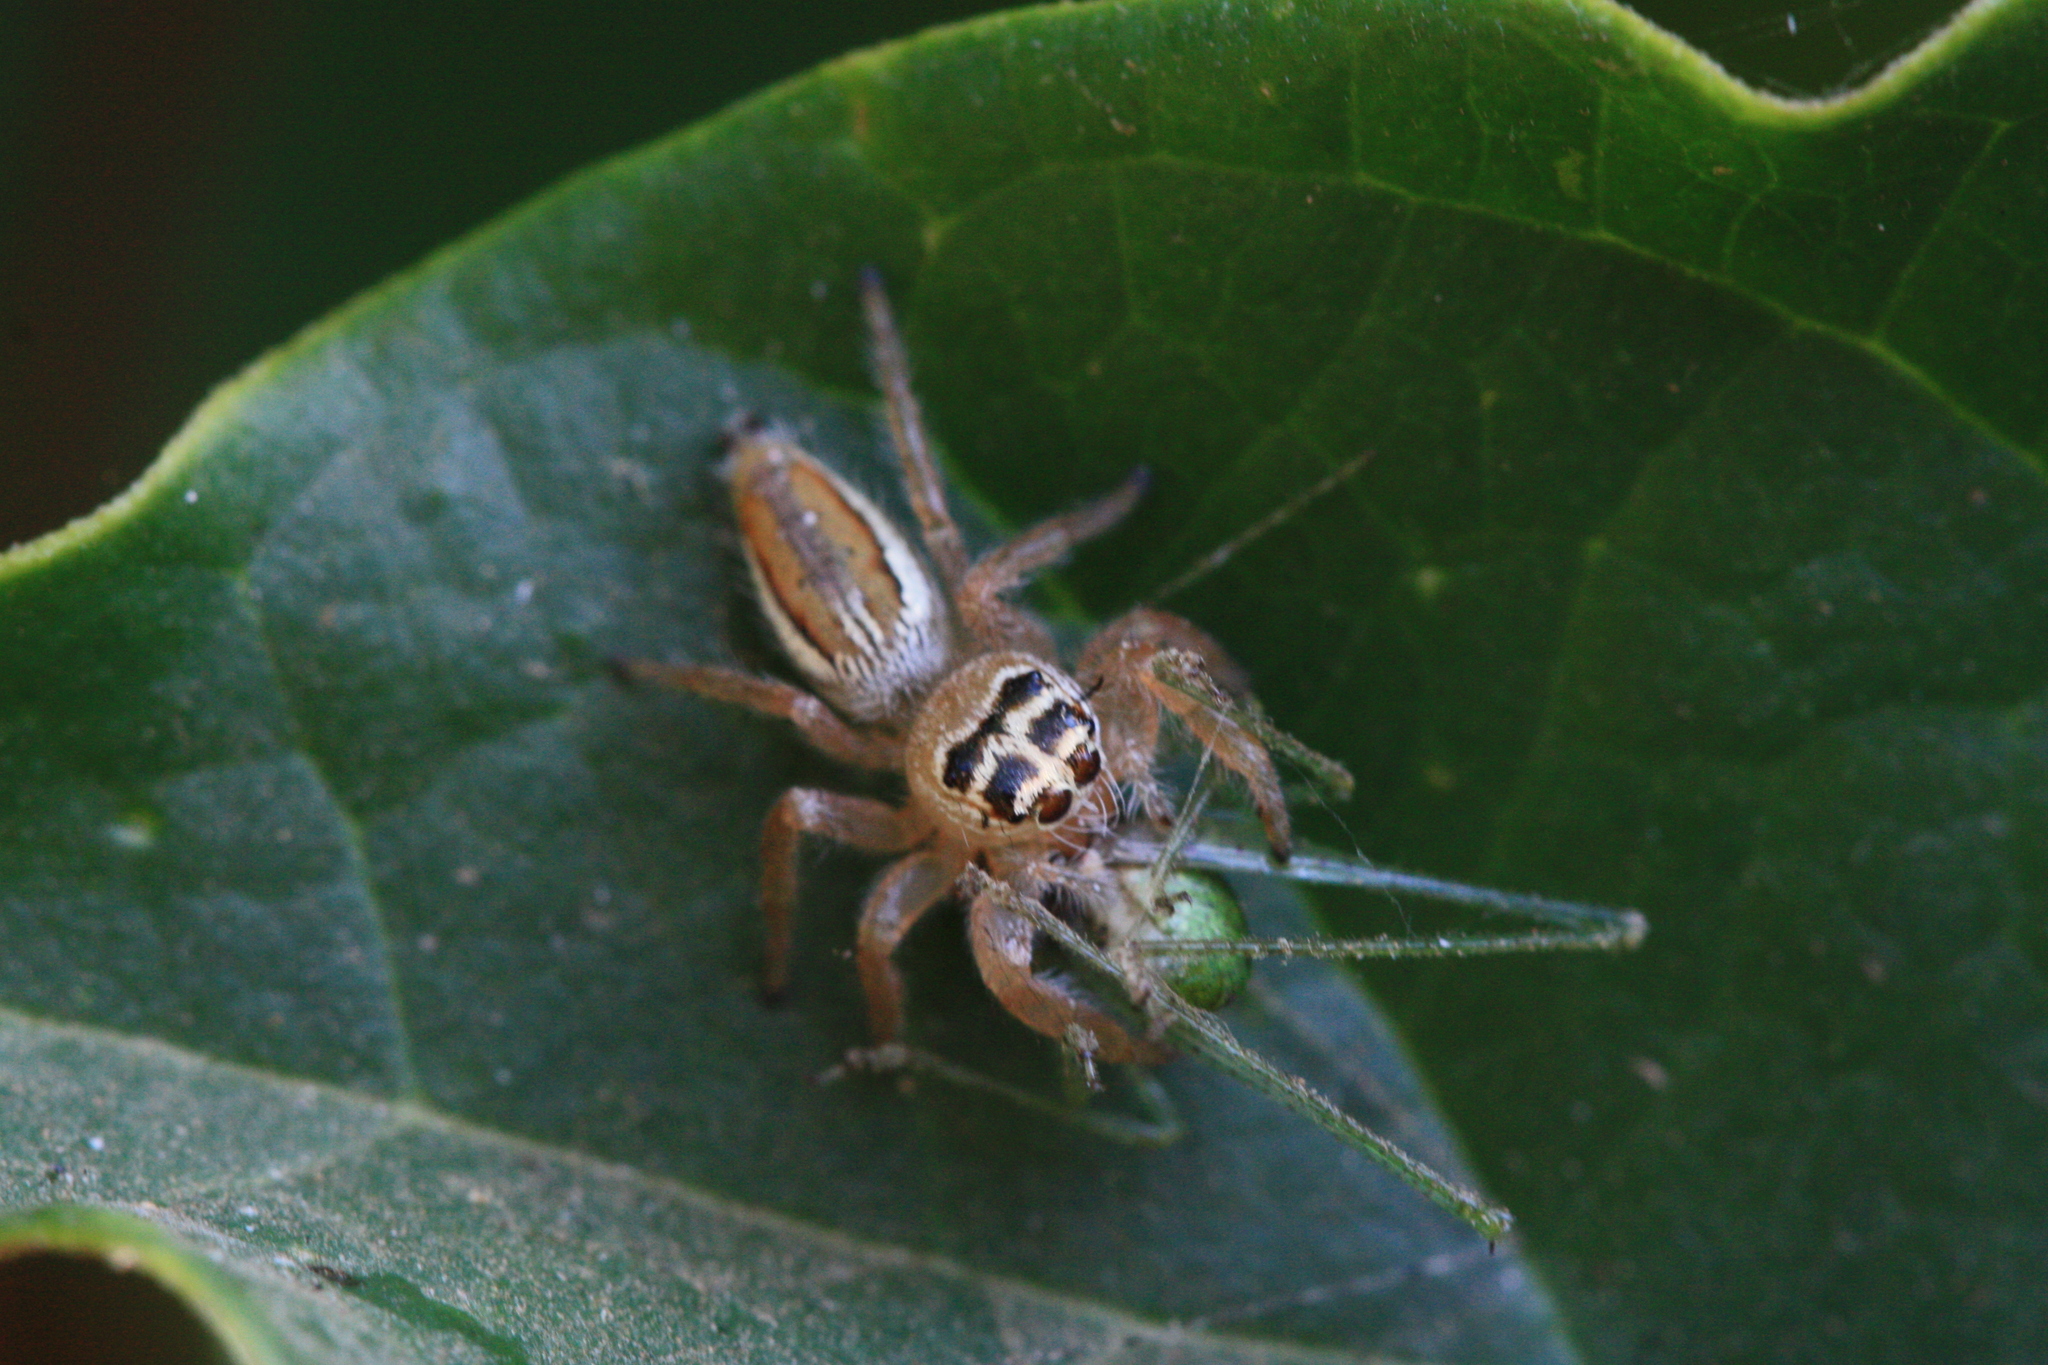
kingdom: Animalia
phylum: Arthropoda
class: Arachnida
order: Araneae
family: Salticidae
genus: Thyene
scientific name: Thyene inflata
